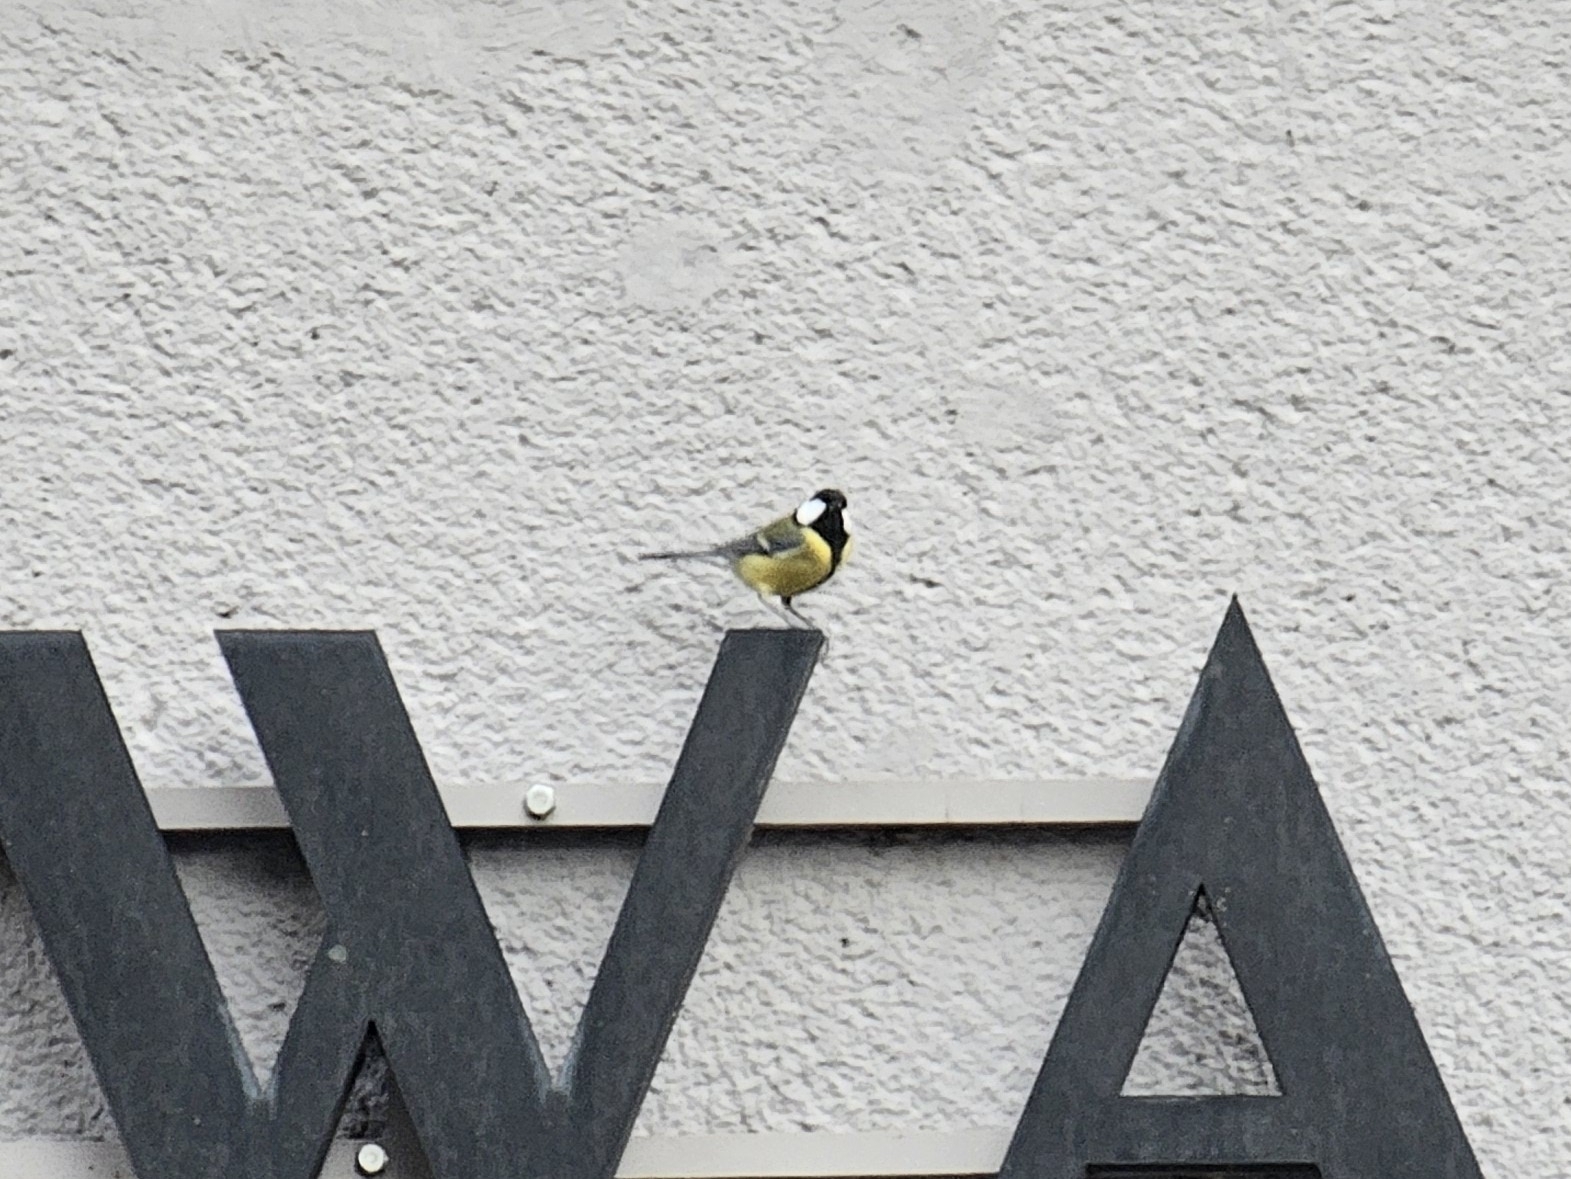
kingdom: Animalia
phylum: Chordata
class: Aves
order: Passeriformes
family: Paridae
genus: Parus
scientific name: Parus major
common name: Great tit
